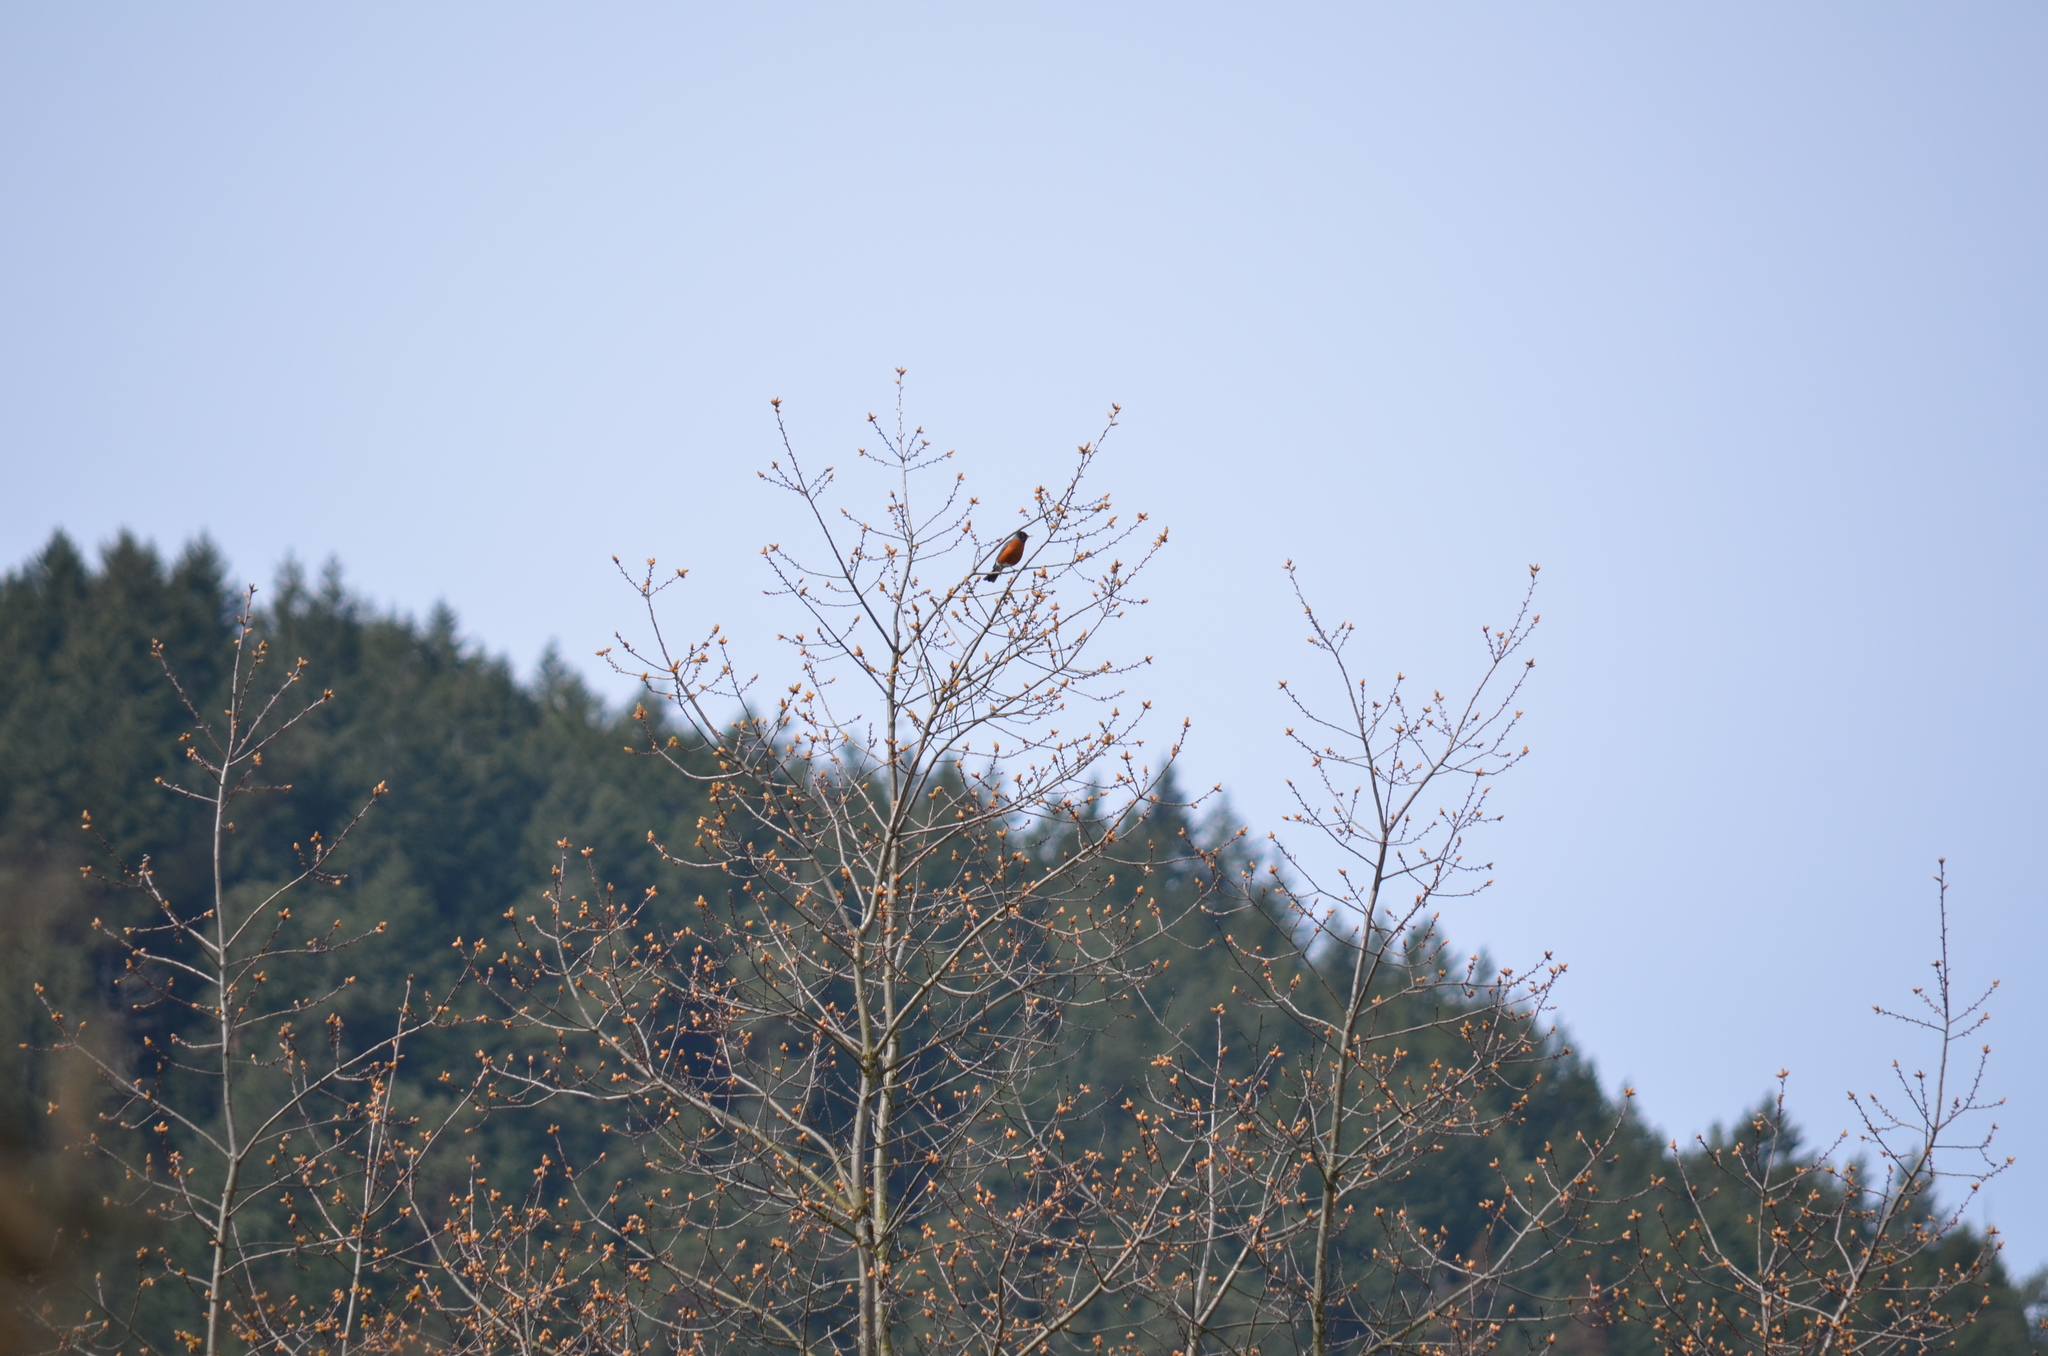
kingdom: Animalia
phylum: Chordata
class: Aves
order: Passeriformes
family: Turdidae
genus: Turdus
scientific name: Turdus migratorius
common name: American robin
